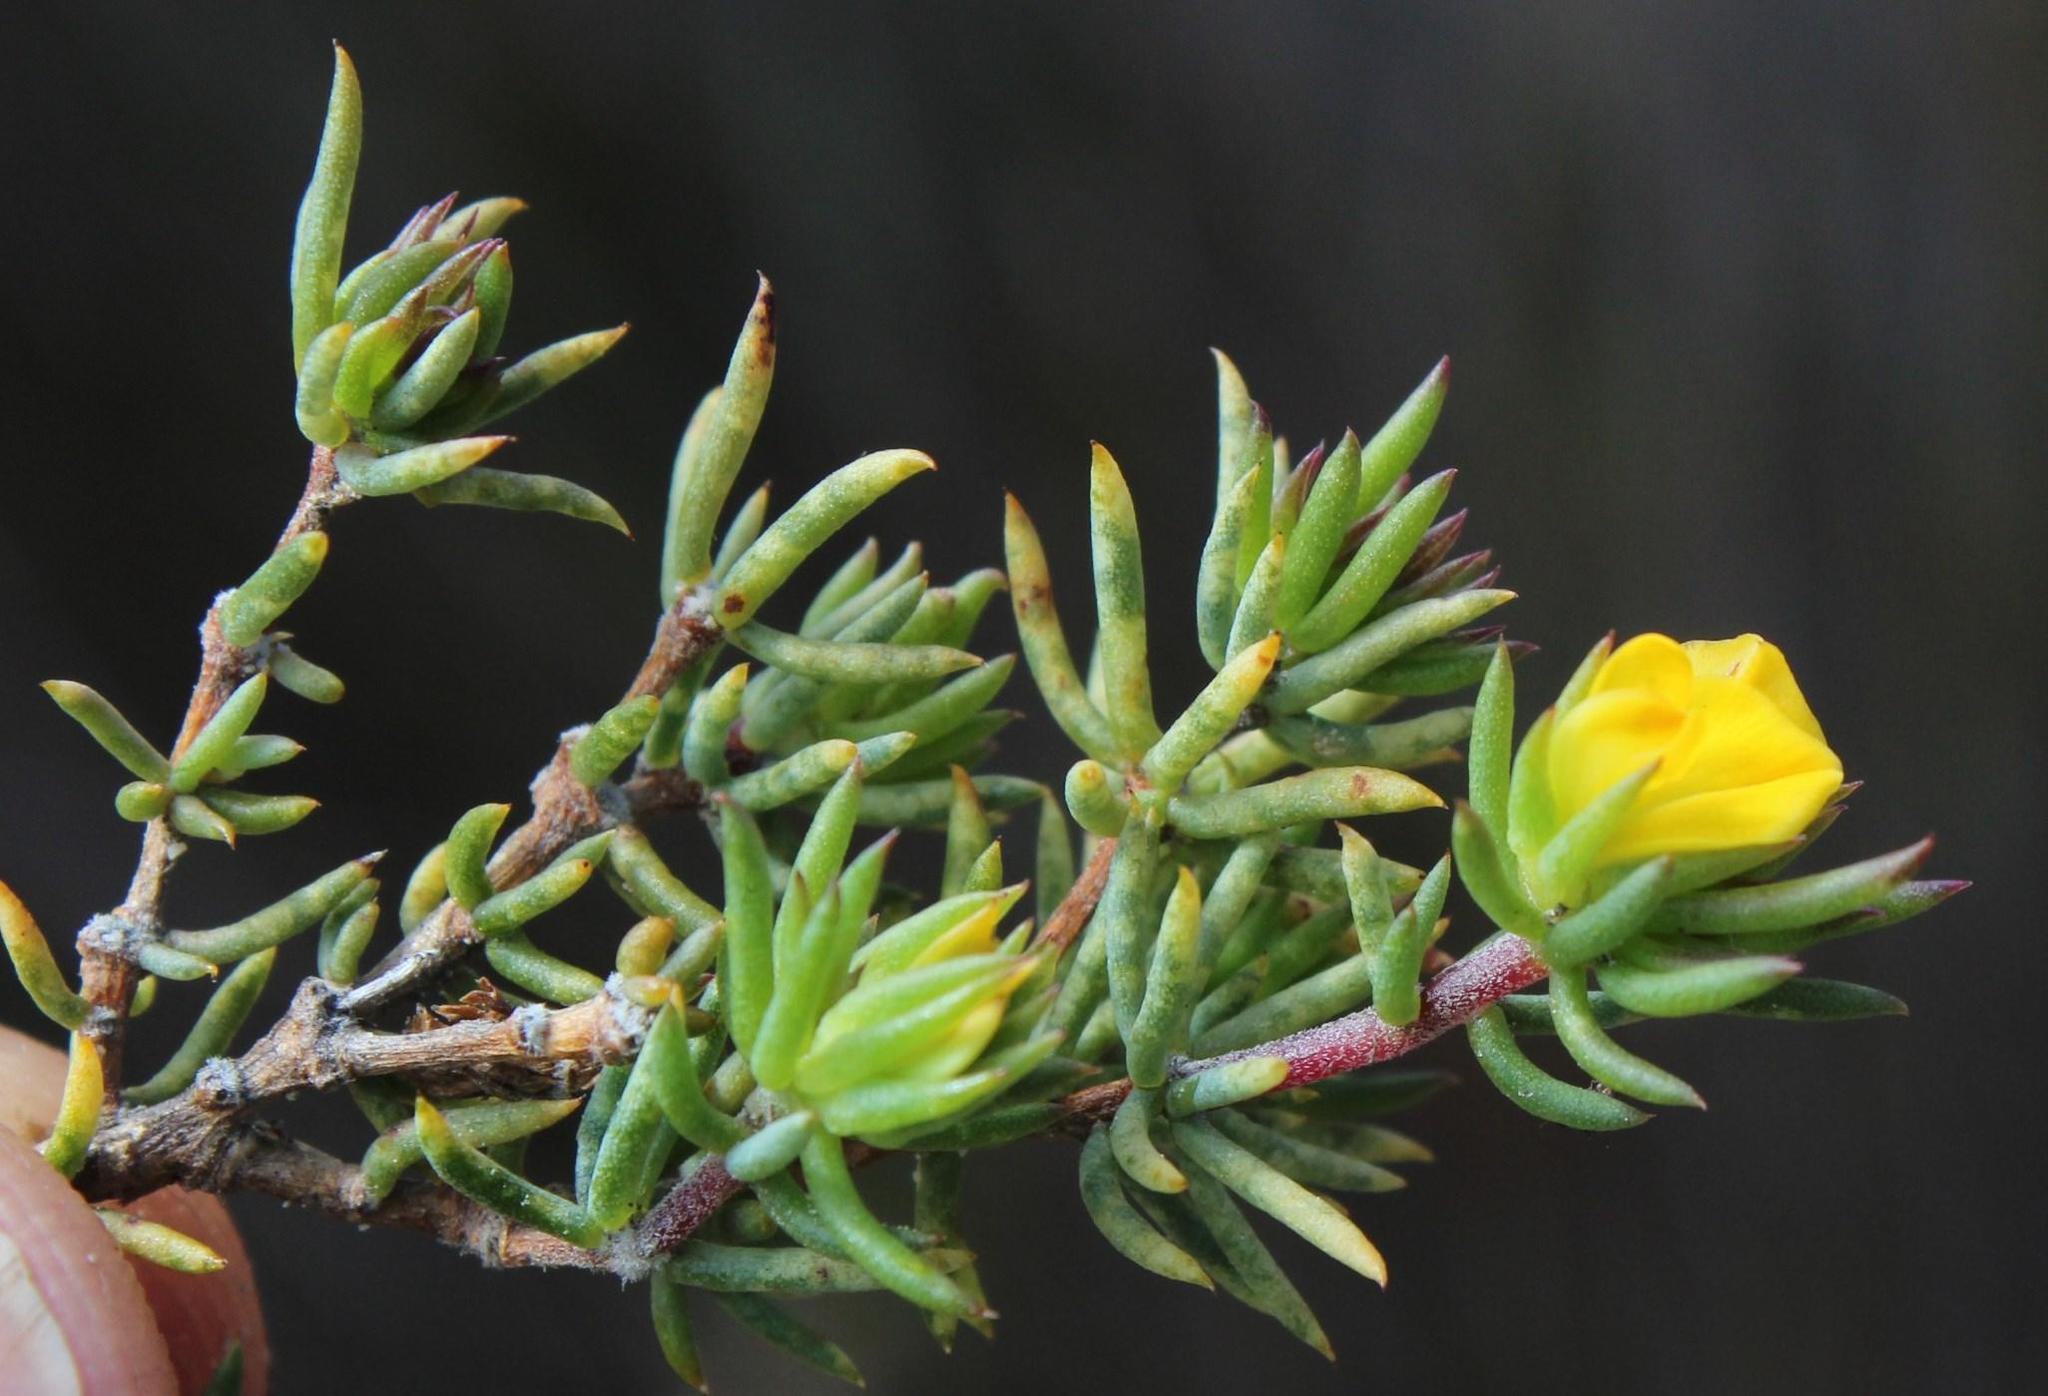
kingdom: Plantae
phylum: Tracheophyta
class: Magnoliopsida
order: Fabales
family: Fabaceae
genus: Aspalathus
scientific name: Aspalathus juniperina
